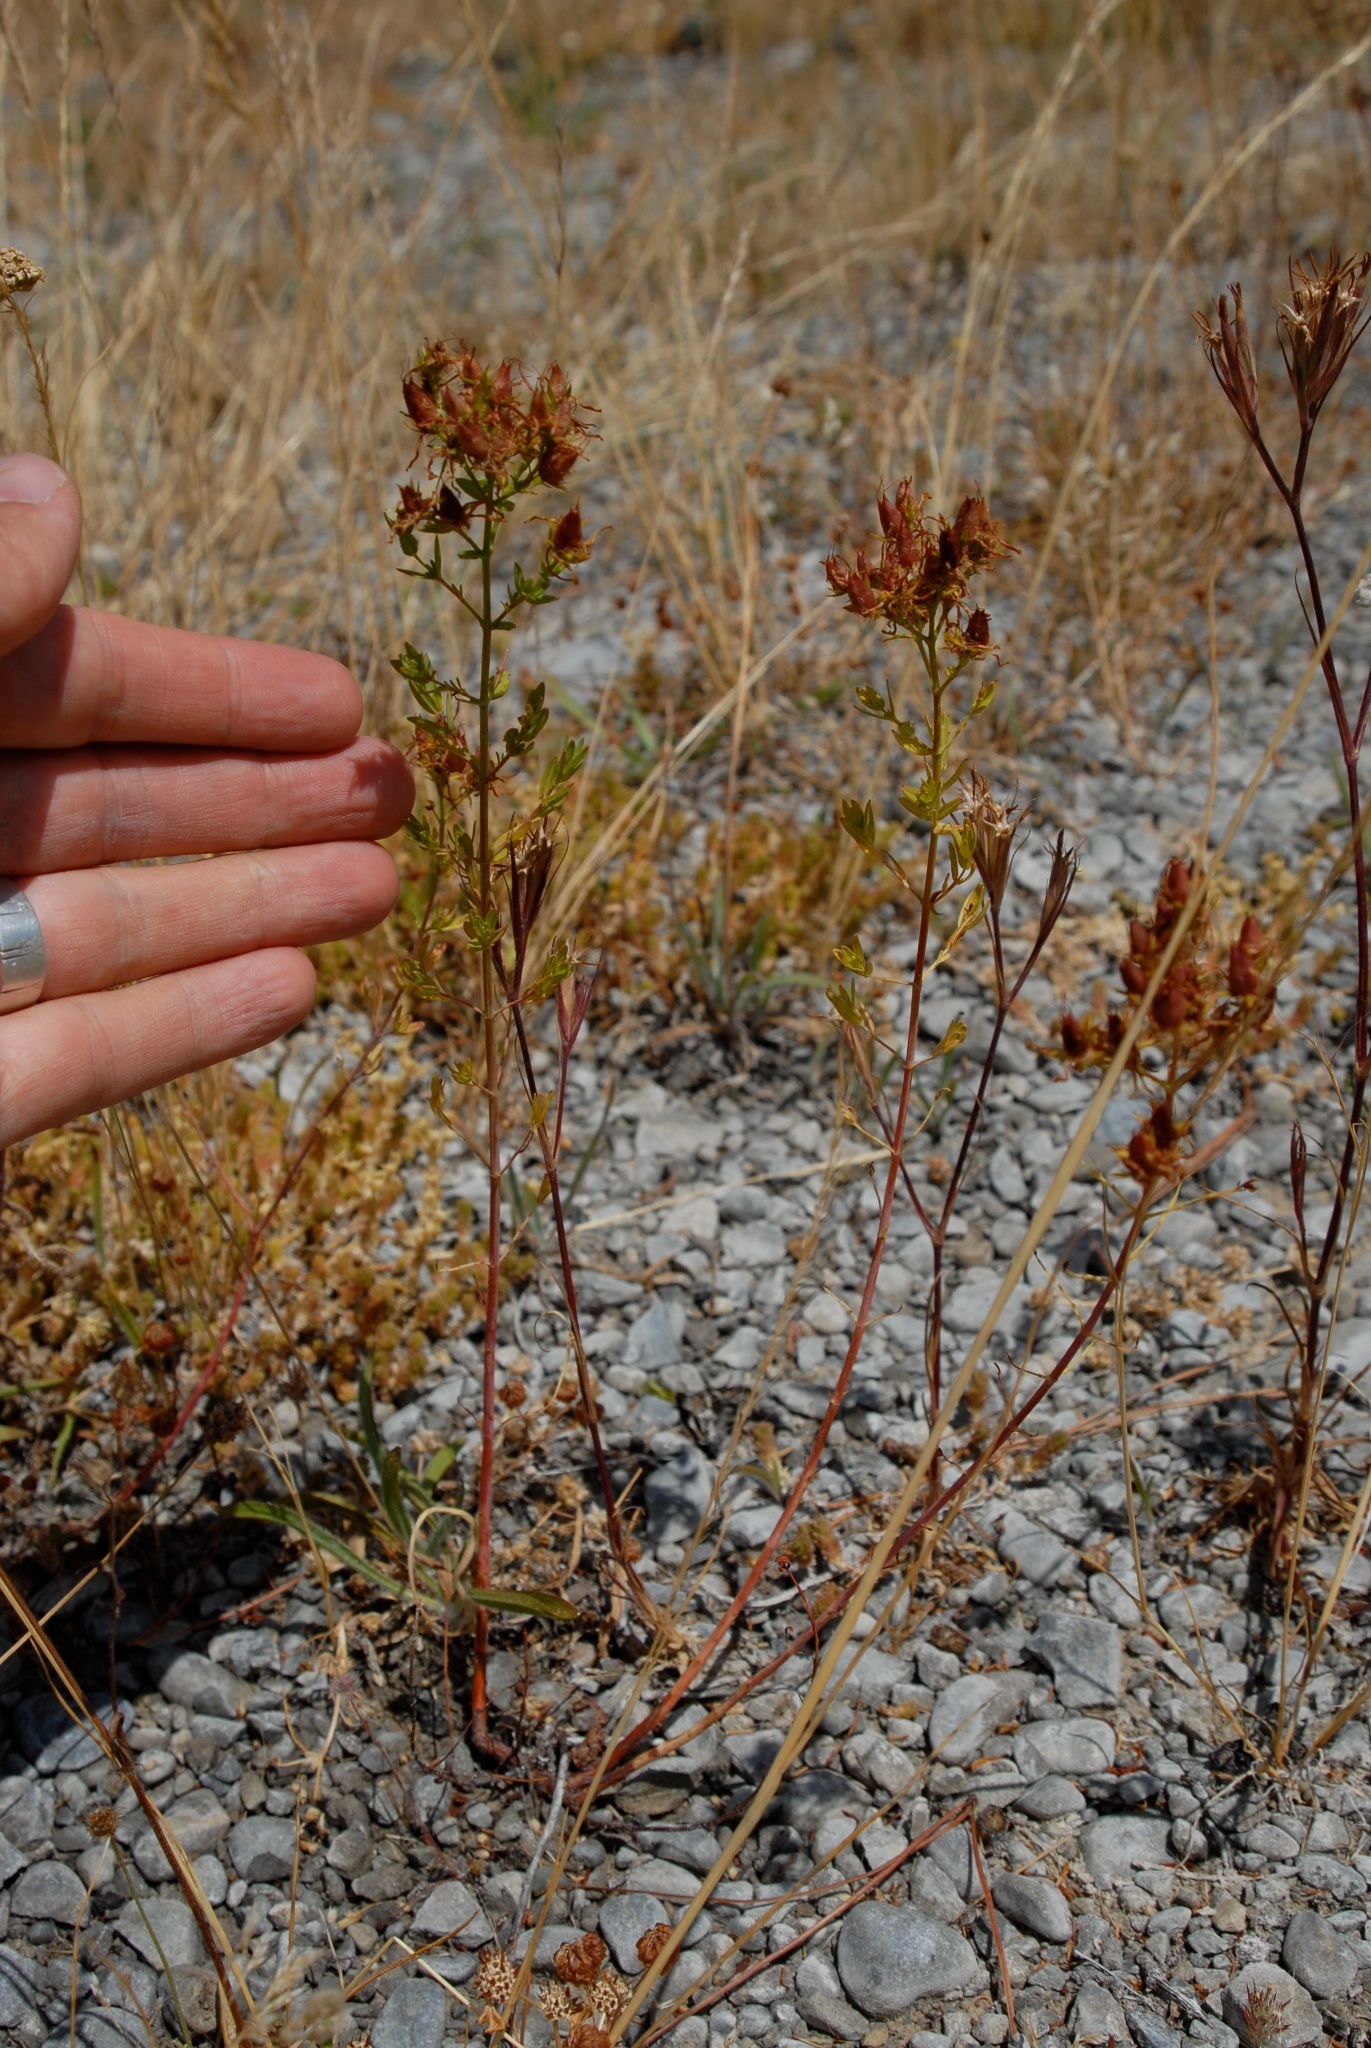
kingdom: Plantae
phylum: Tracheophyta
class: Magnoliopsida
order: Malpighiales
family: Hypericaceae
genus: Hypericum
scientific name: Hypericum perforatum
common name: Common st. johnswort
